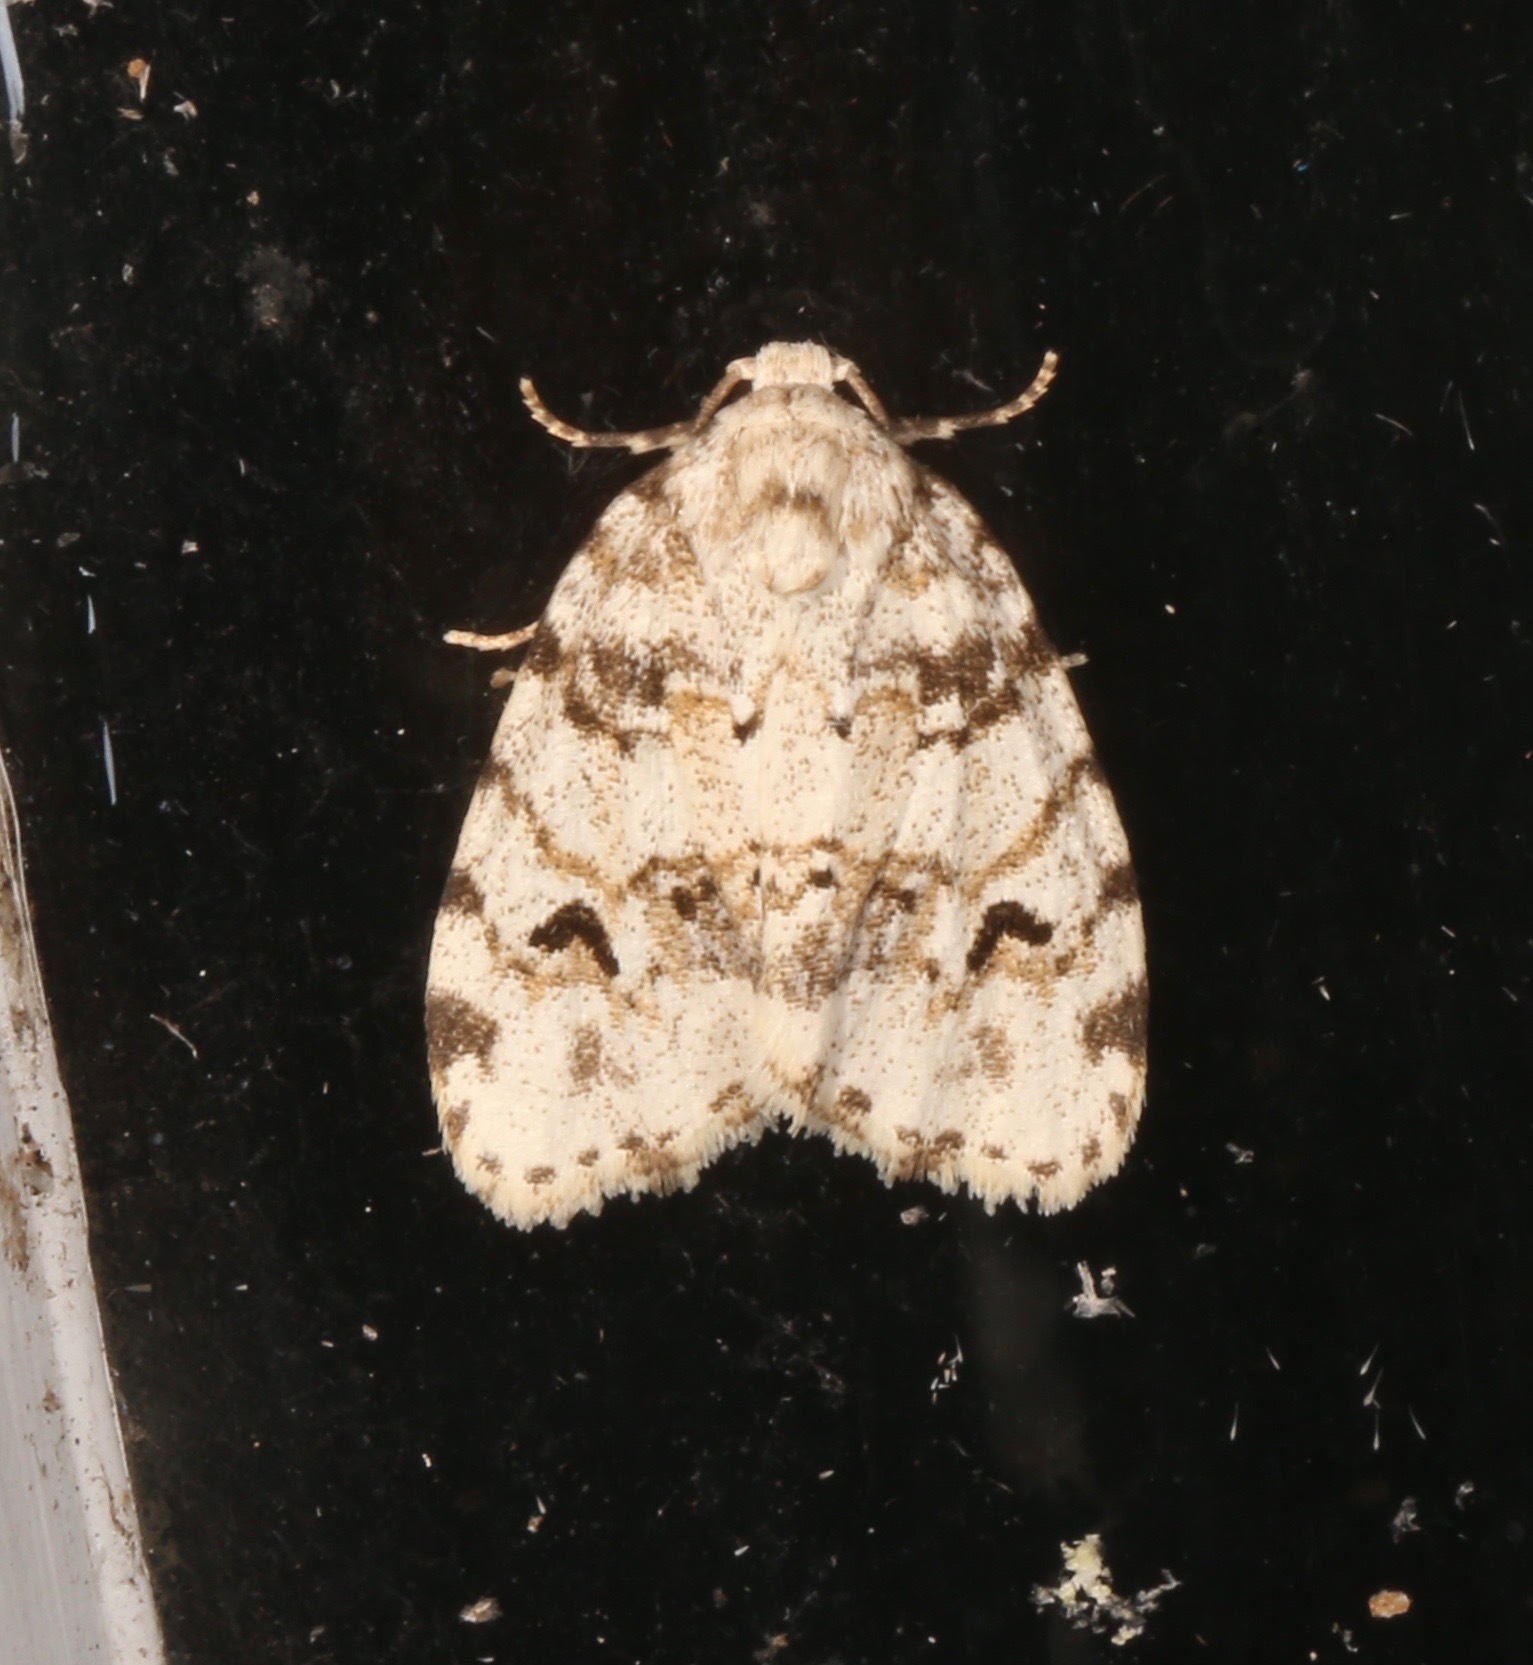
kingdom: Animalia
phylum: Arthropoda
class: Insecta
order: Lepidoptera
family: Erebidae
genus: Clemensia
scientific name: Clemensia ochreata
